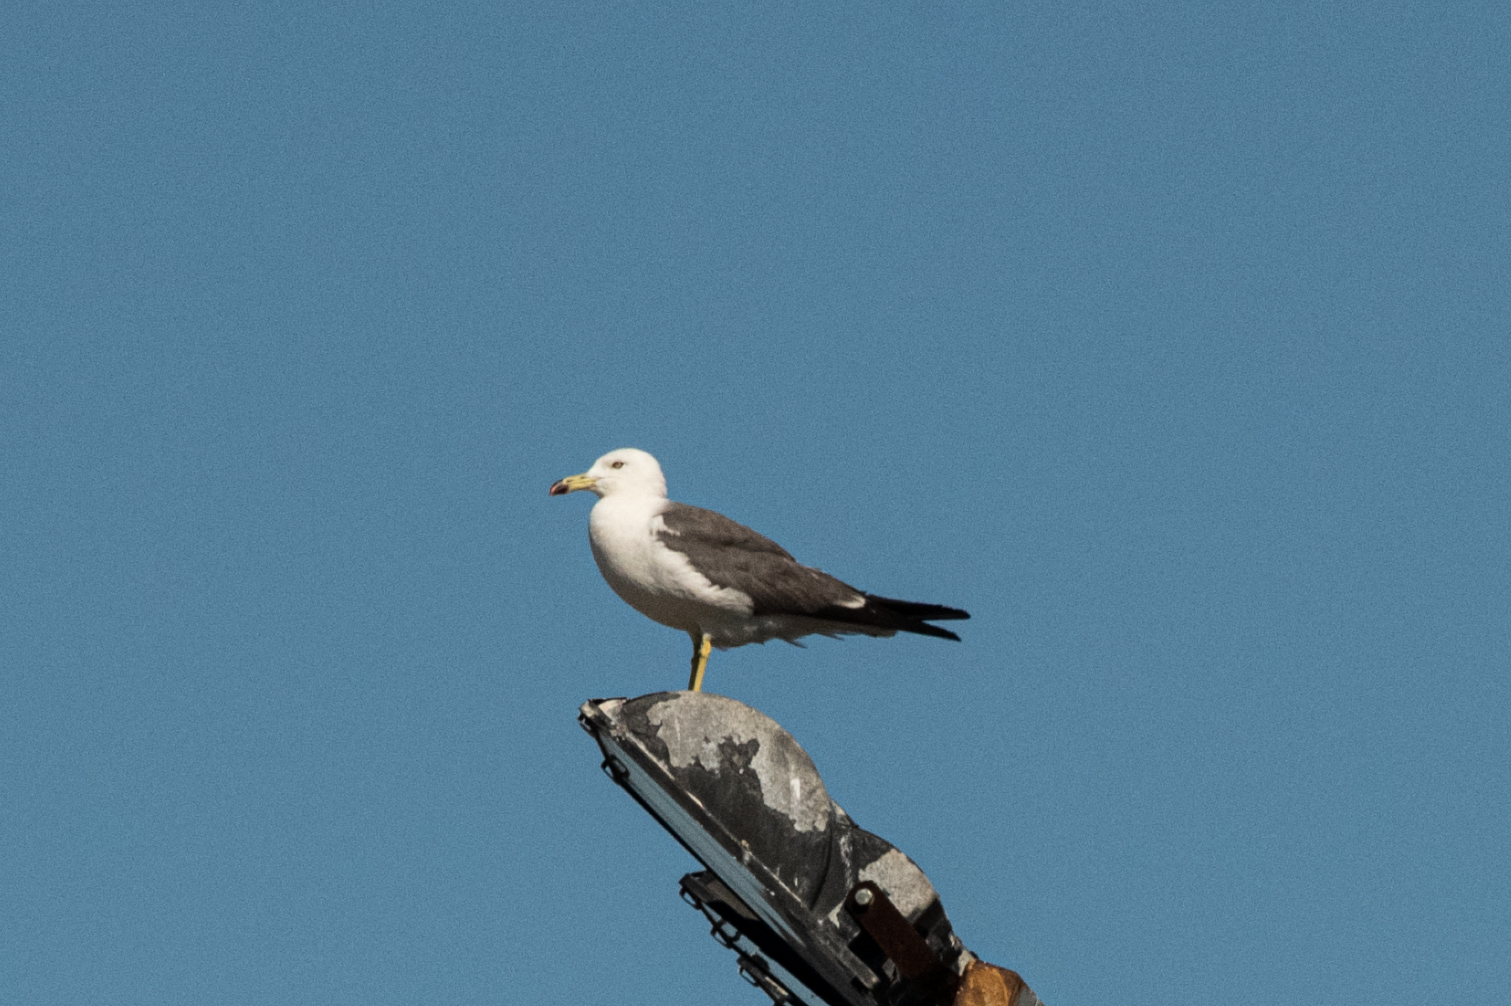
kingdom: Animalia
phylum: Chordata
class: Aves
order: Charadriiformes
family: Laridae
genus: Larus
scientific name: Larus crassirostris
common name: Black-tailed gull
